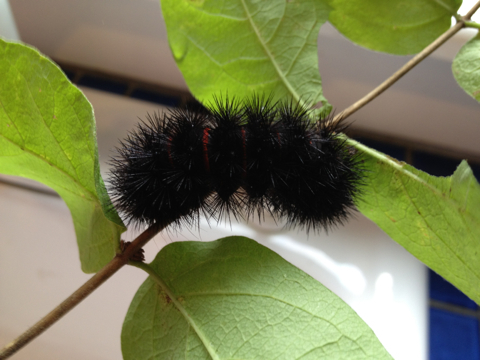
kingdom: Animalia
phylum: Arthropoda
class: Insecta
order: Lepidoptera
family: Erebidae
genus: Hypercompe
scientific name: Hypercompe scribonia
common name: Giant leopard moth
